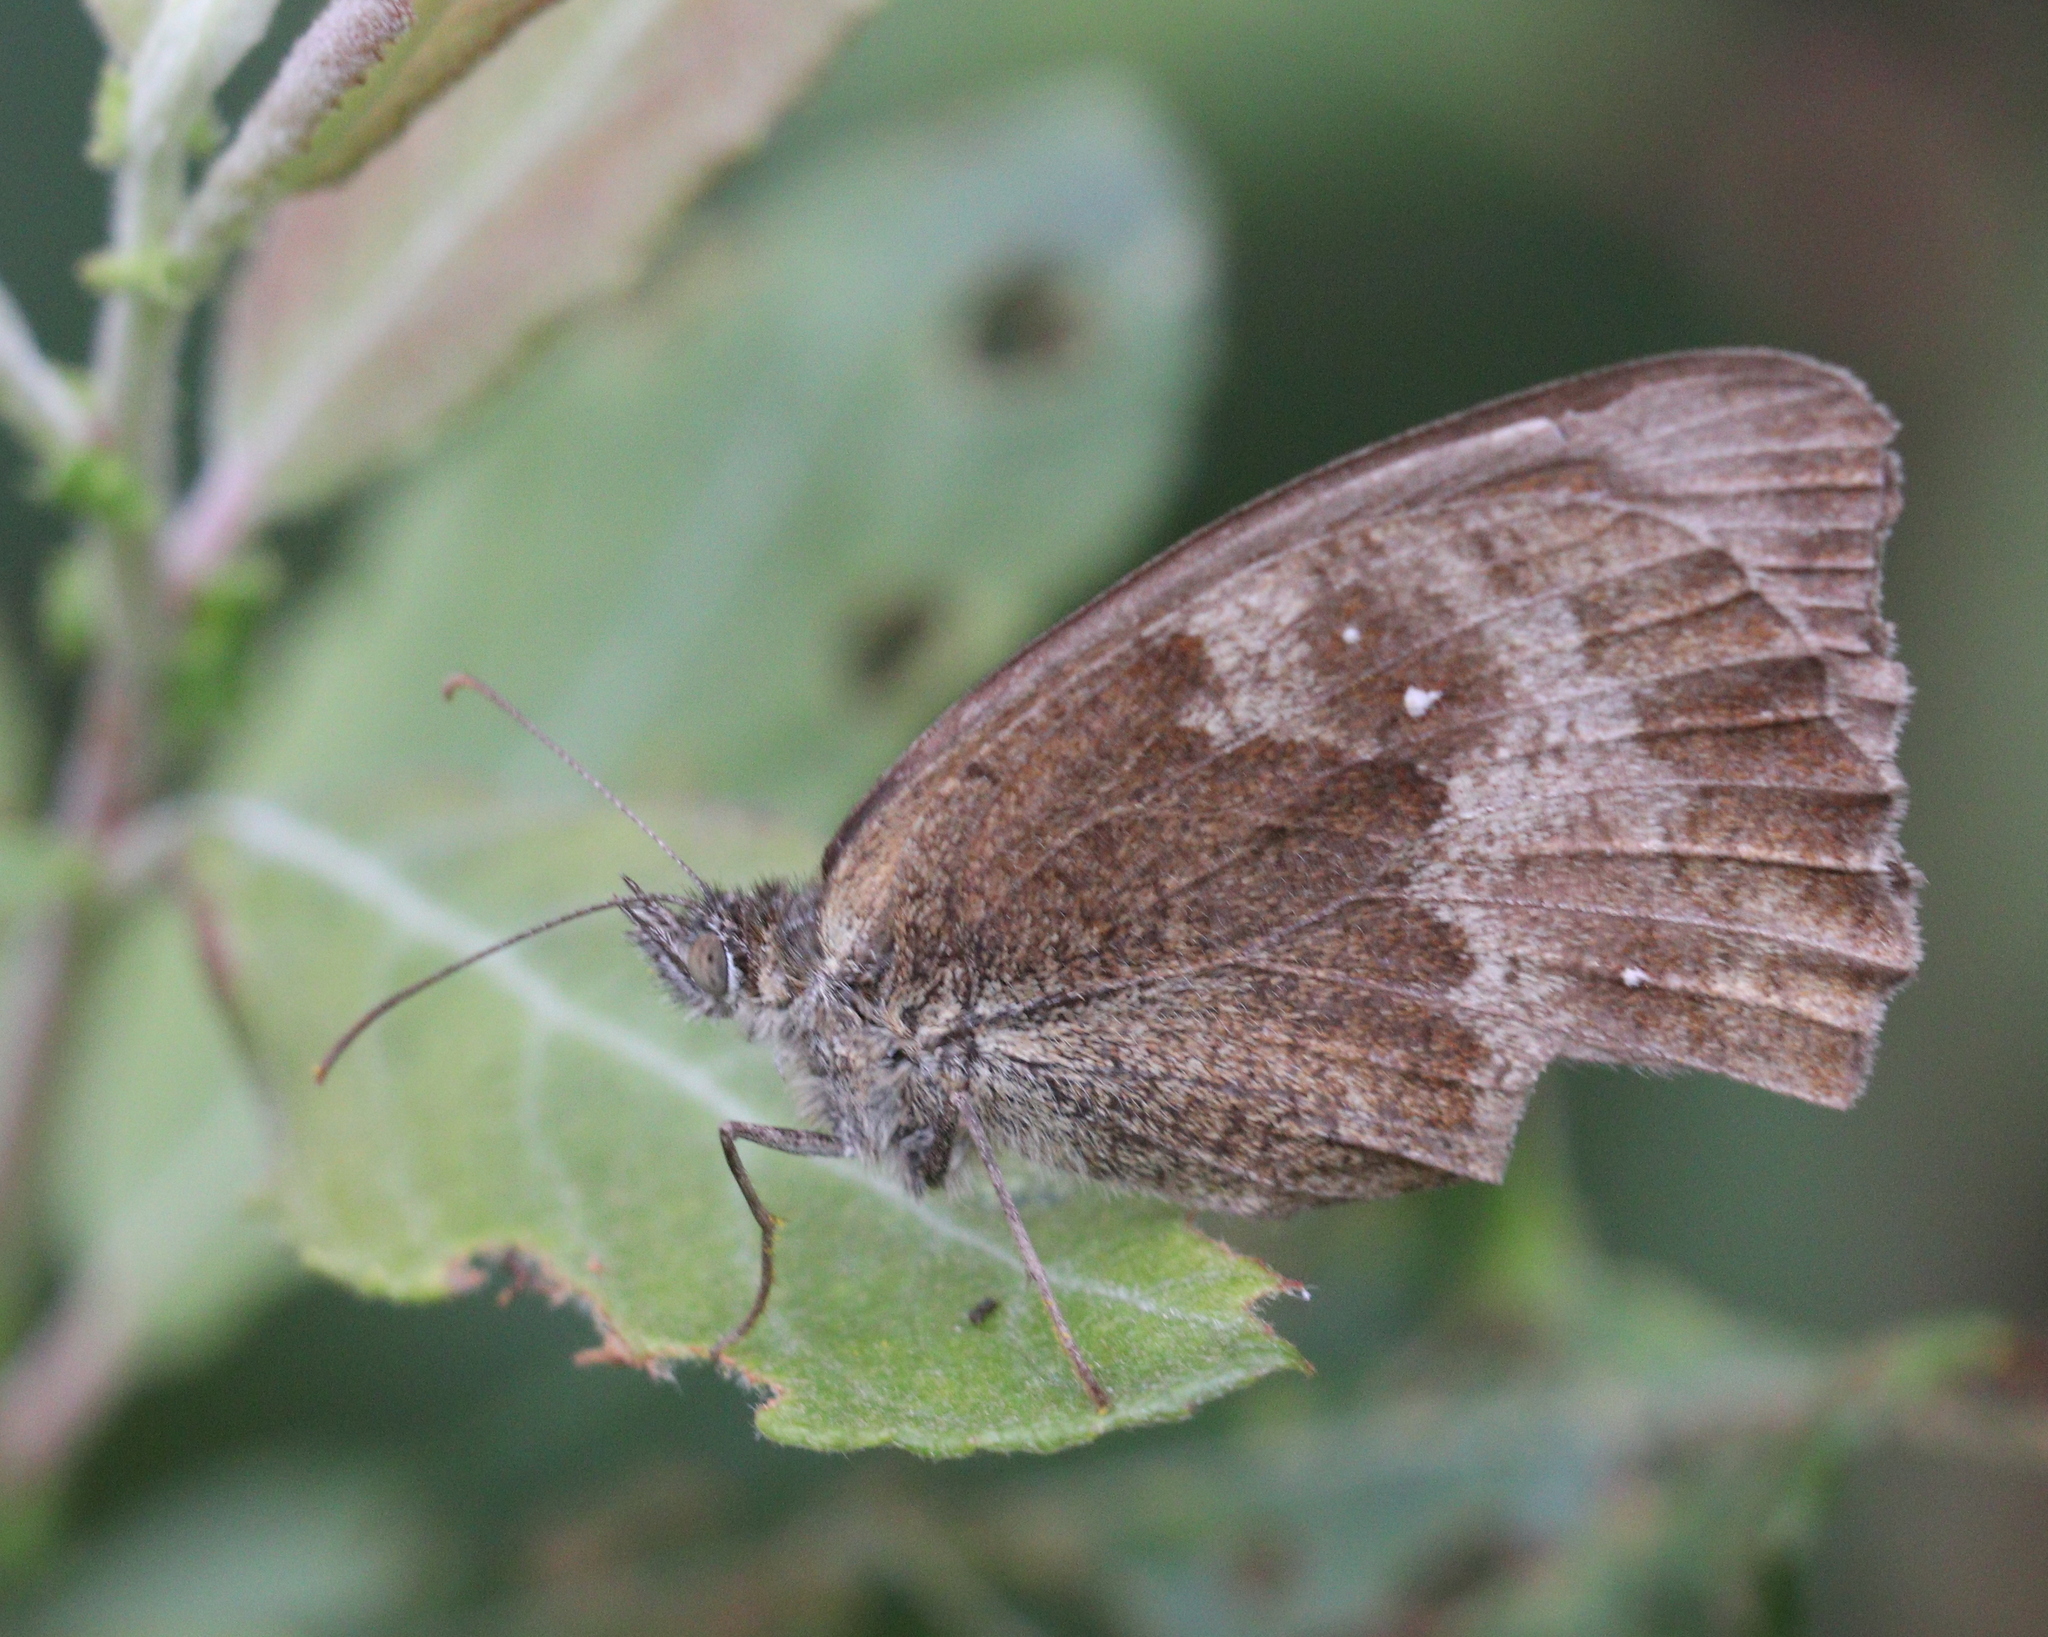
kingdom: Animalia
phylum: Arthropoda
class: Insecta
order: Lepidoptera
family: Nymphalidae
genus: Pyronia
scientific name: Pyronia tithonus
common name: Gatekeeper
